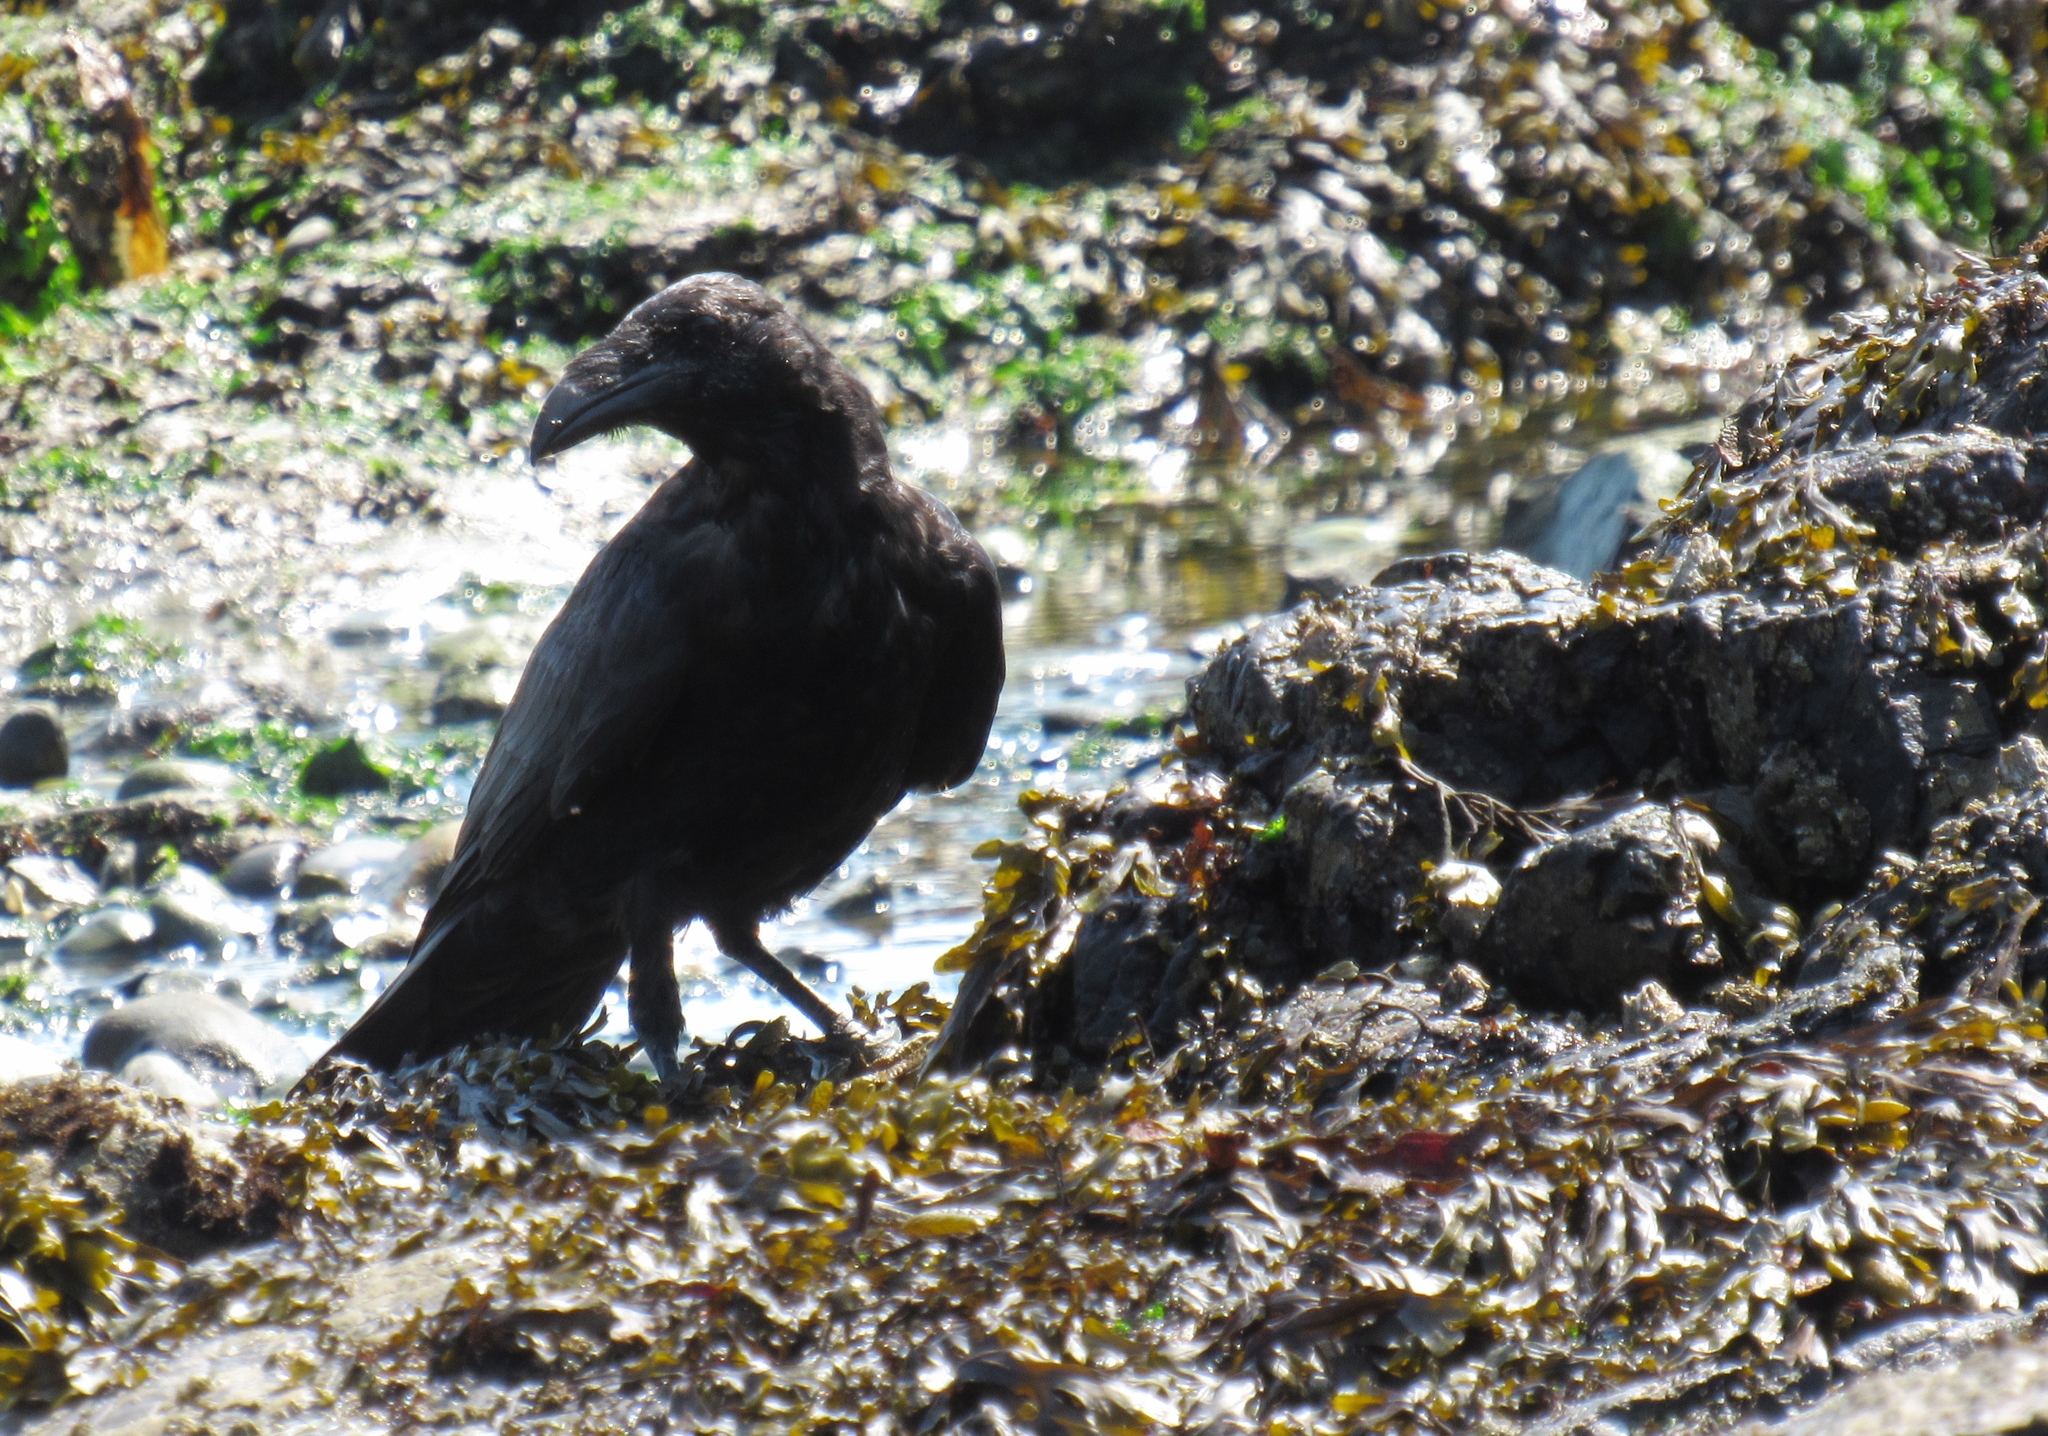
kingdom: Animalia
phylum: Chordata
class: Aves
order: Passeriformes
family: Corvidae
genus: Corvus
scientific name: Corvus corax
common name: Common raven
